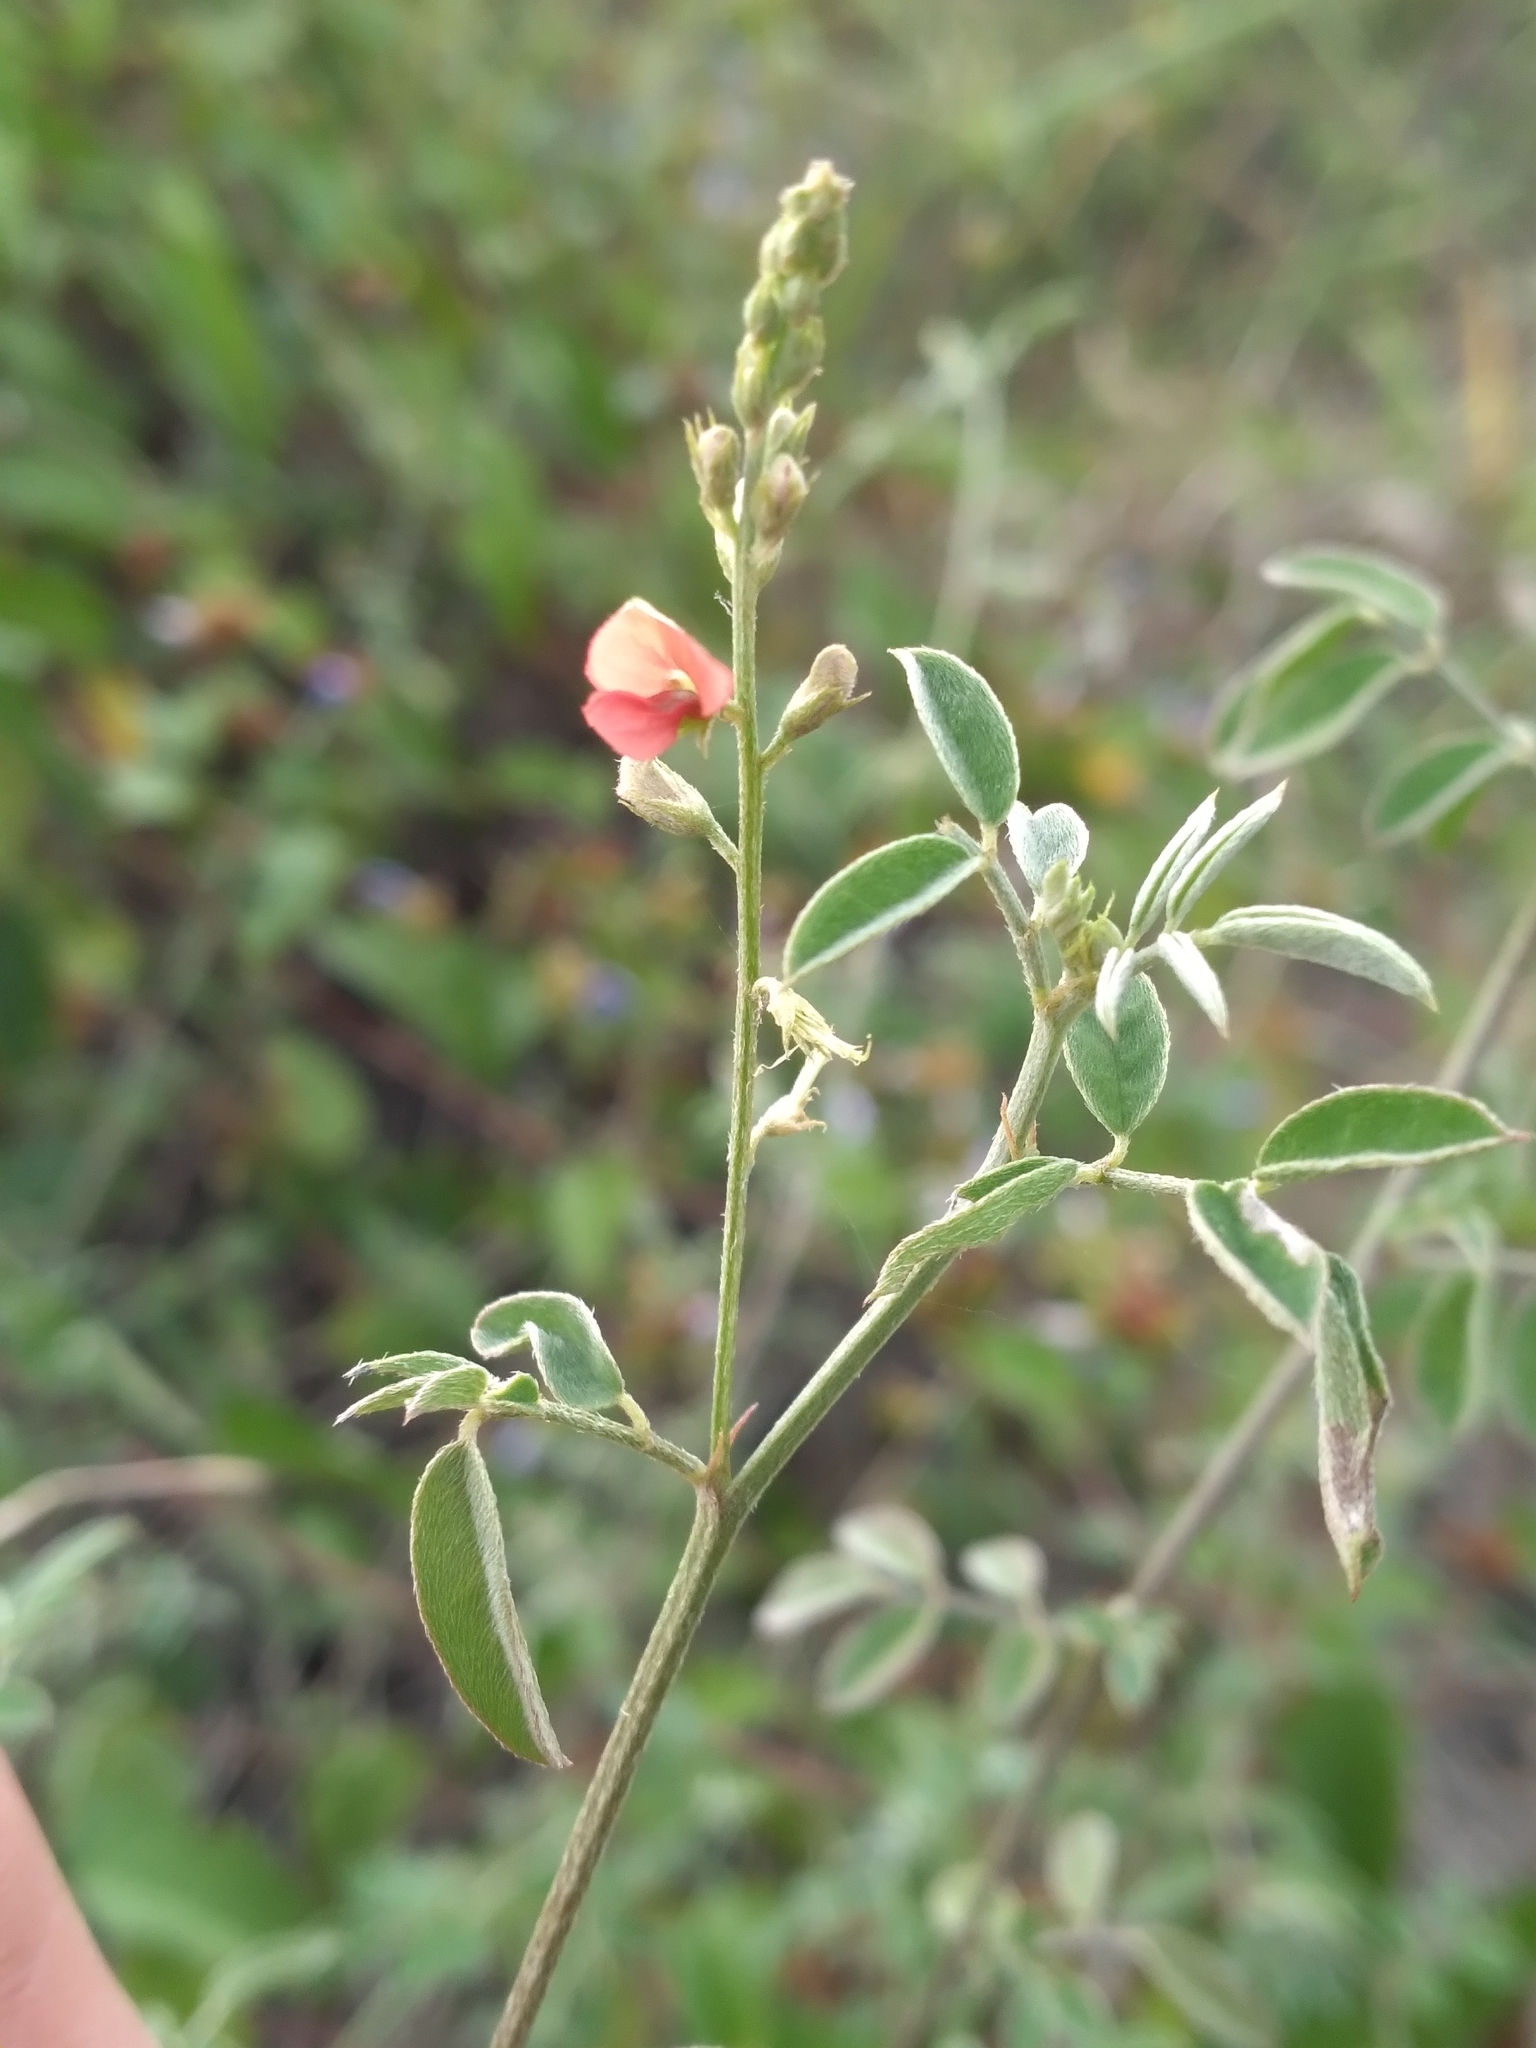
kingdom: Plantae
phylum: Tracheophyta
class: Magnoliopsida
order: Fabales
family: Fabaceae
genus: Indigofera
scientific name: Indigofera subulata
